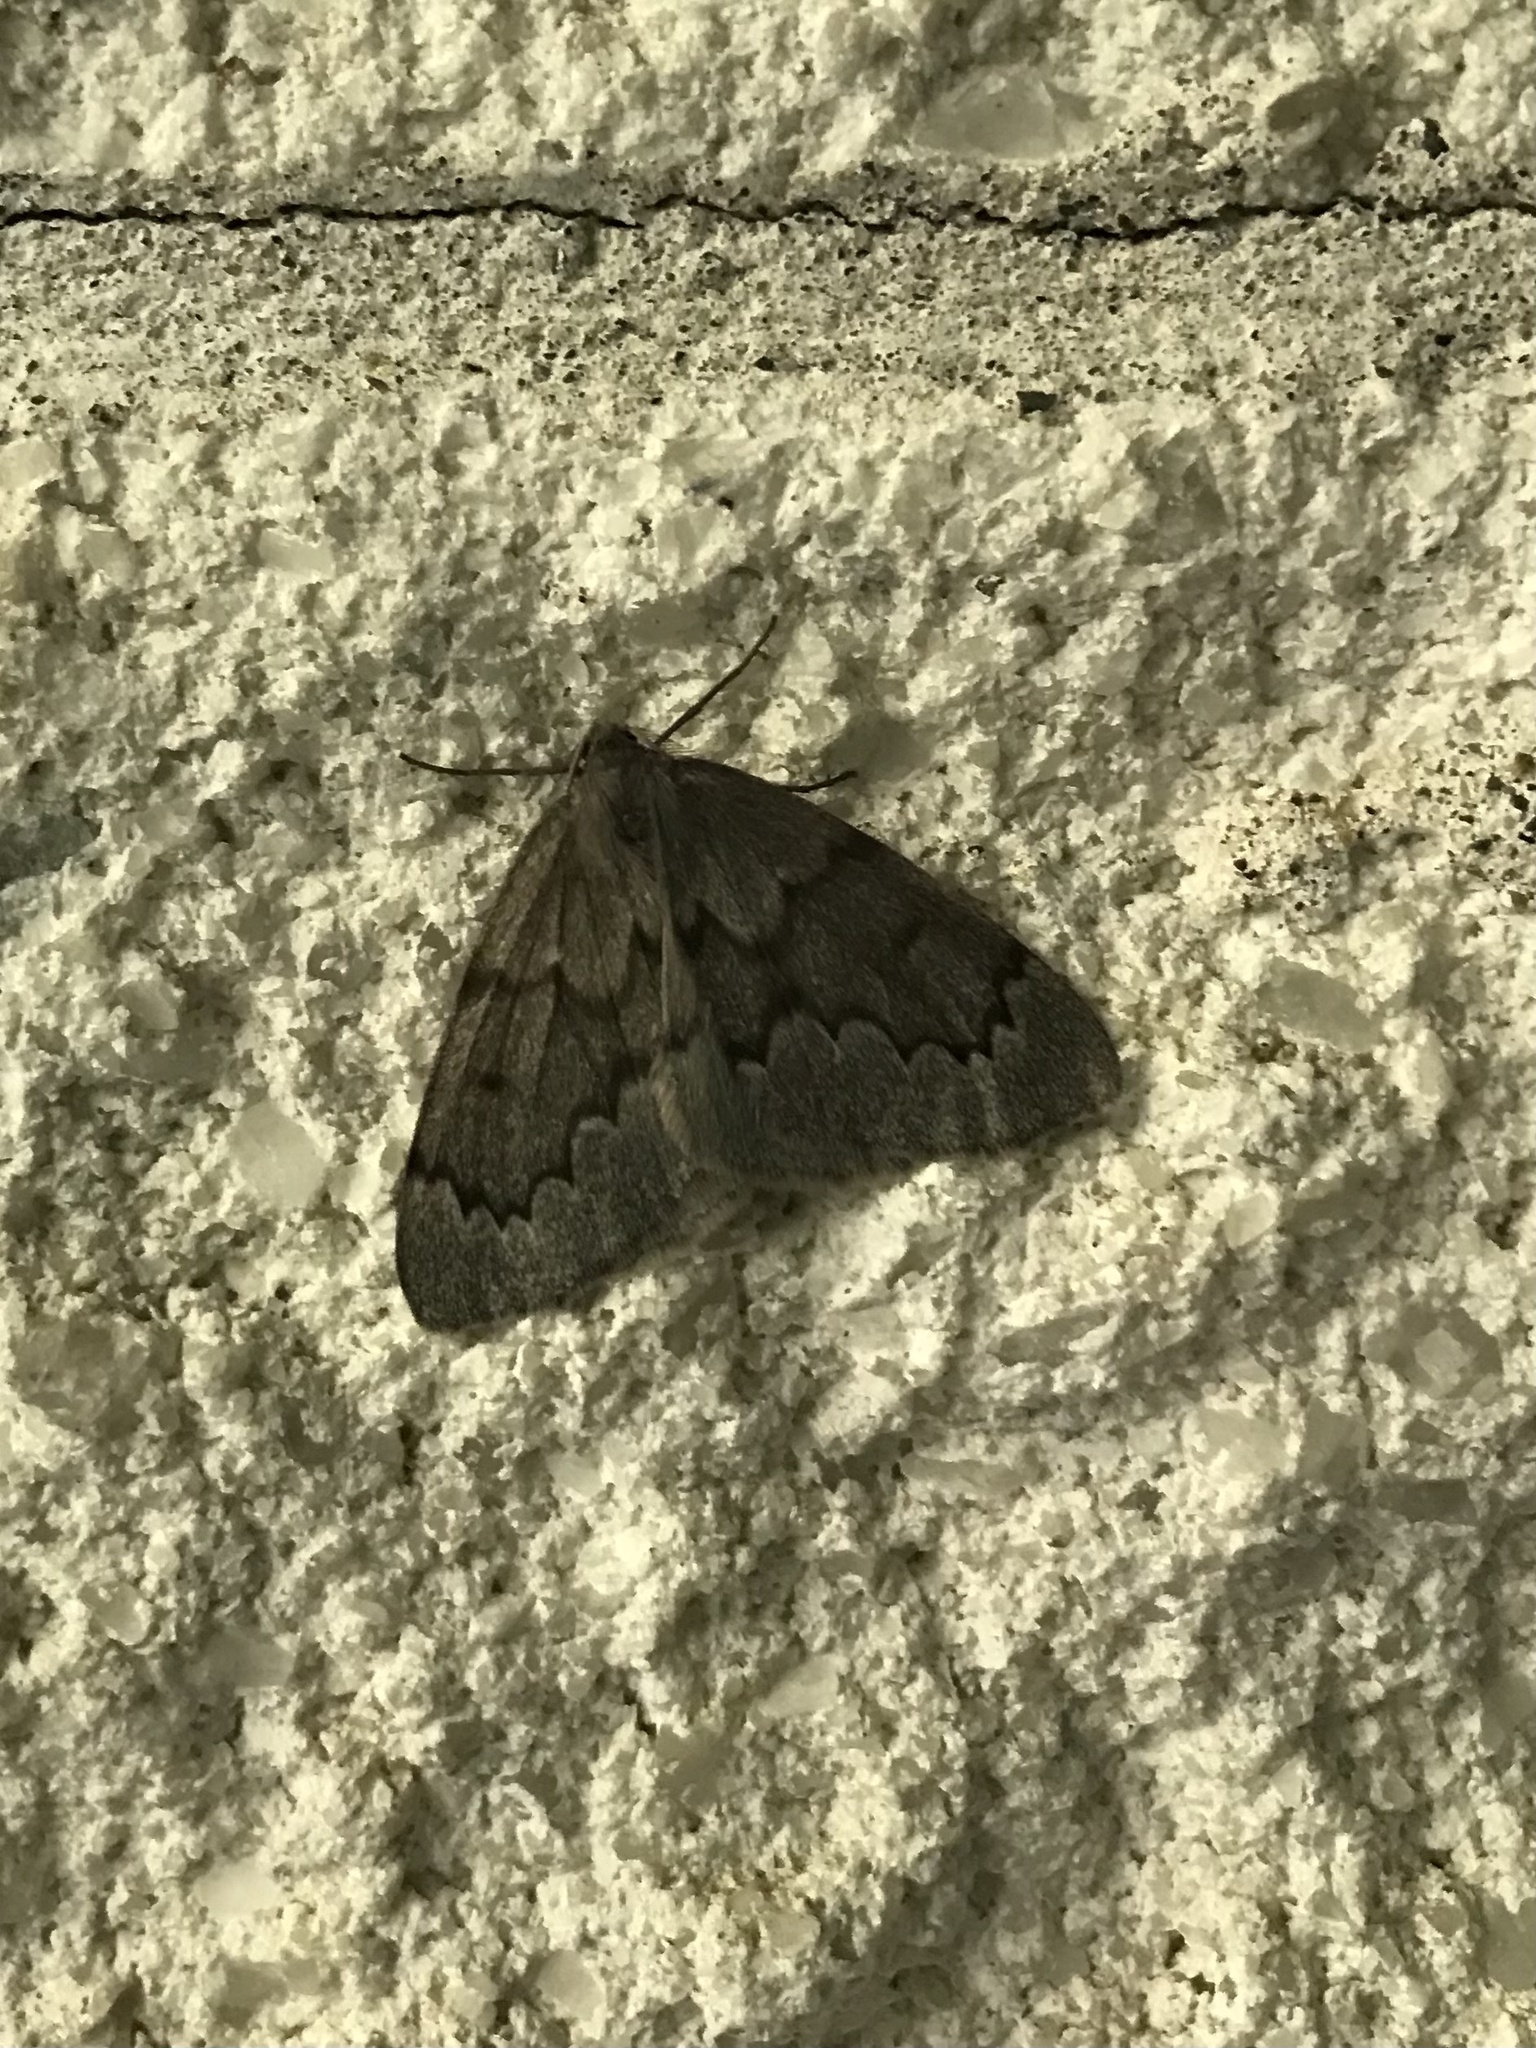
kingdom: Animalia
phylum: Arthropoda
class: Insecta
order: Lepidoptera
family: Geometridae
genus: Nepytia
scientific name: Nepytia pellucidaria
